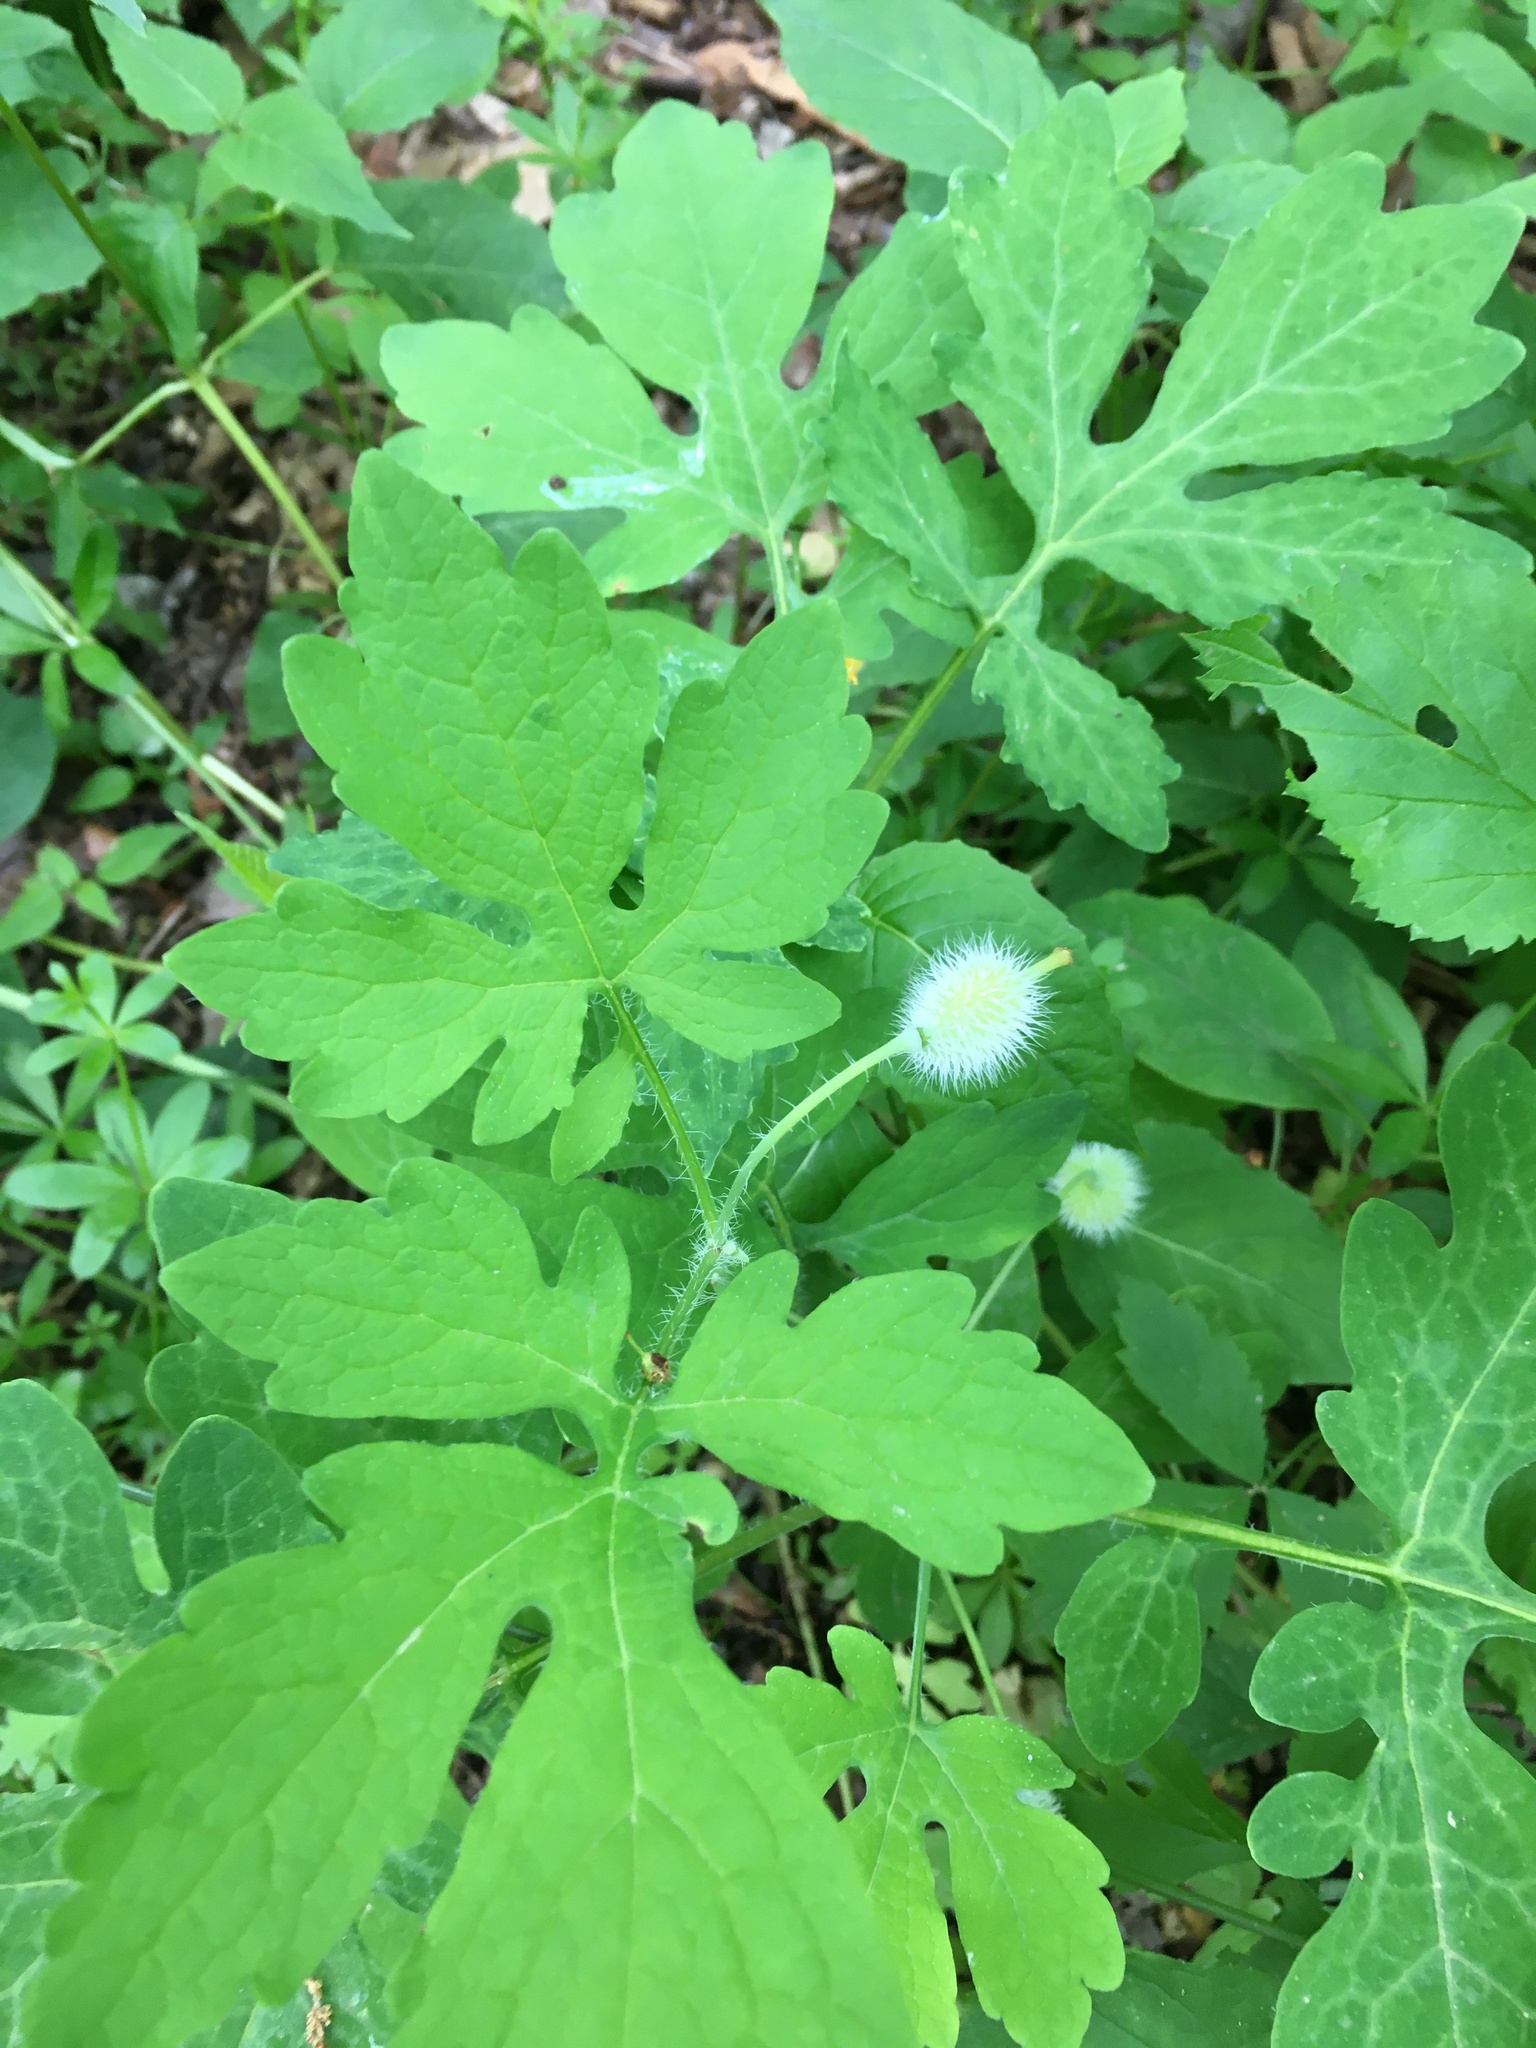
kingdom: Plantae
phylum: Tracheophyta
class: Magnoliopsida
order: Ranunculales
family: Papaveraceae
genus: Stylophorum
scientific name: Stylophorum diphyllum
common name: Celandine poppy
